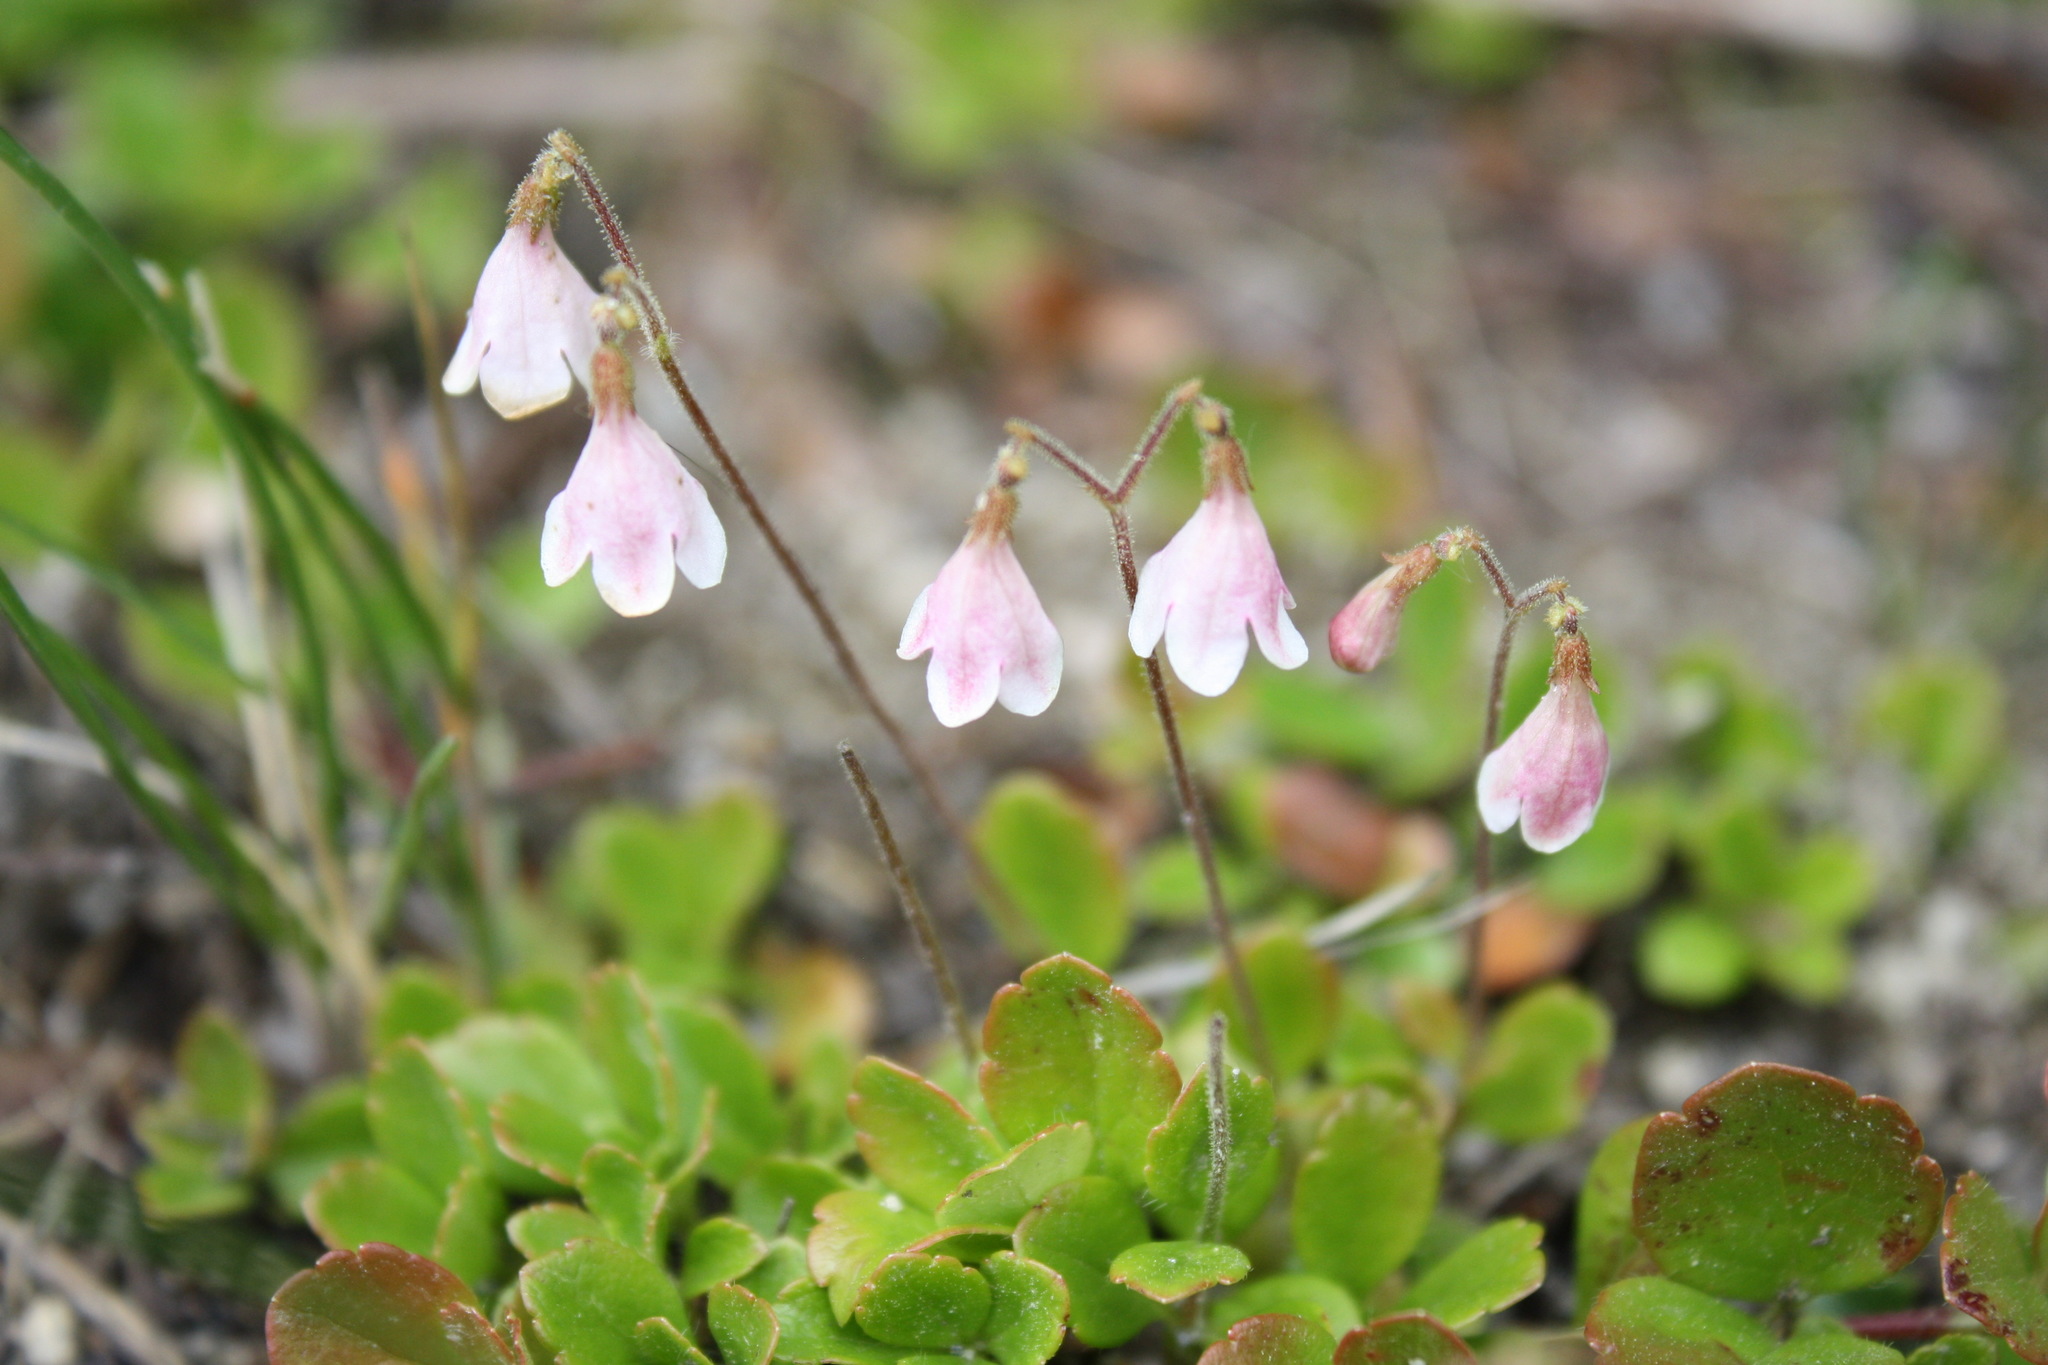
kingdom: Plantae
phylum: Tracheophyta
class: Magnoliopsida
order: Dipsacales
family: Caprifoliaceae
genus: Linnaea
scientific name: Linnaea borealis
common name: Twinflower
